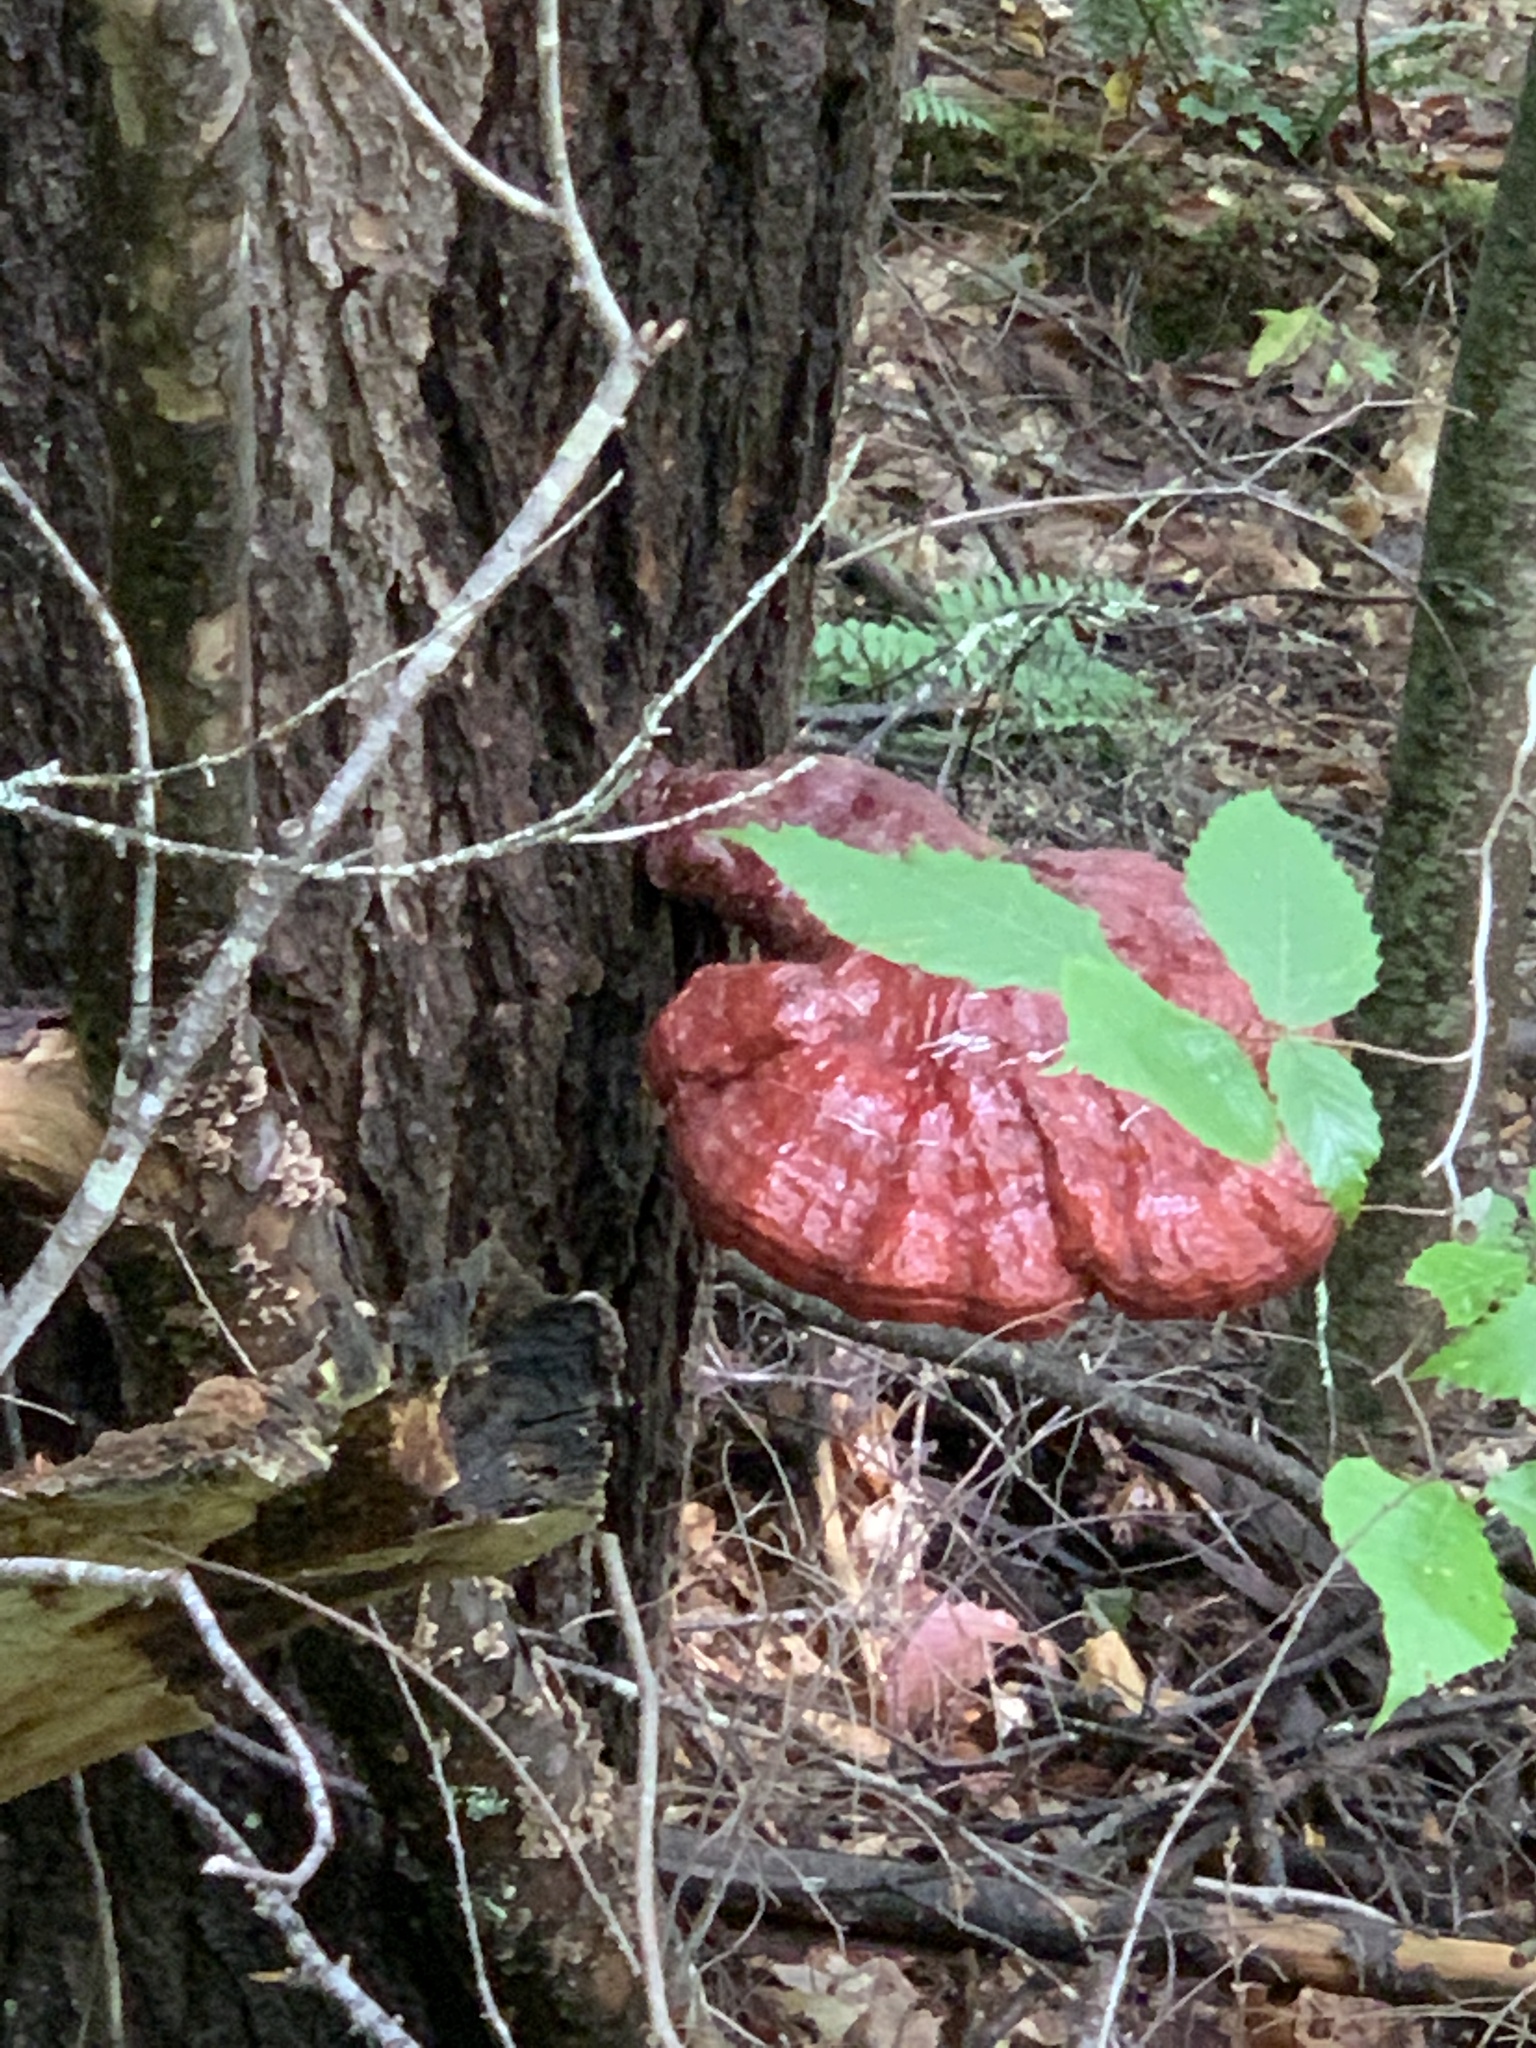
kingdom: Fungi
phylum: Basidiomycota
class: Agaricomycetes
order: Polyporales
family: Polyporaceae
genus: Ganoderma
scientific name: Ganoderma tsugae
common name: Hemlock varnish shelf
